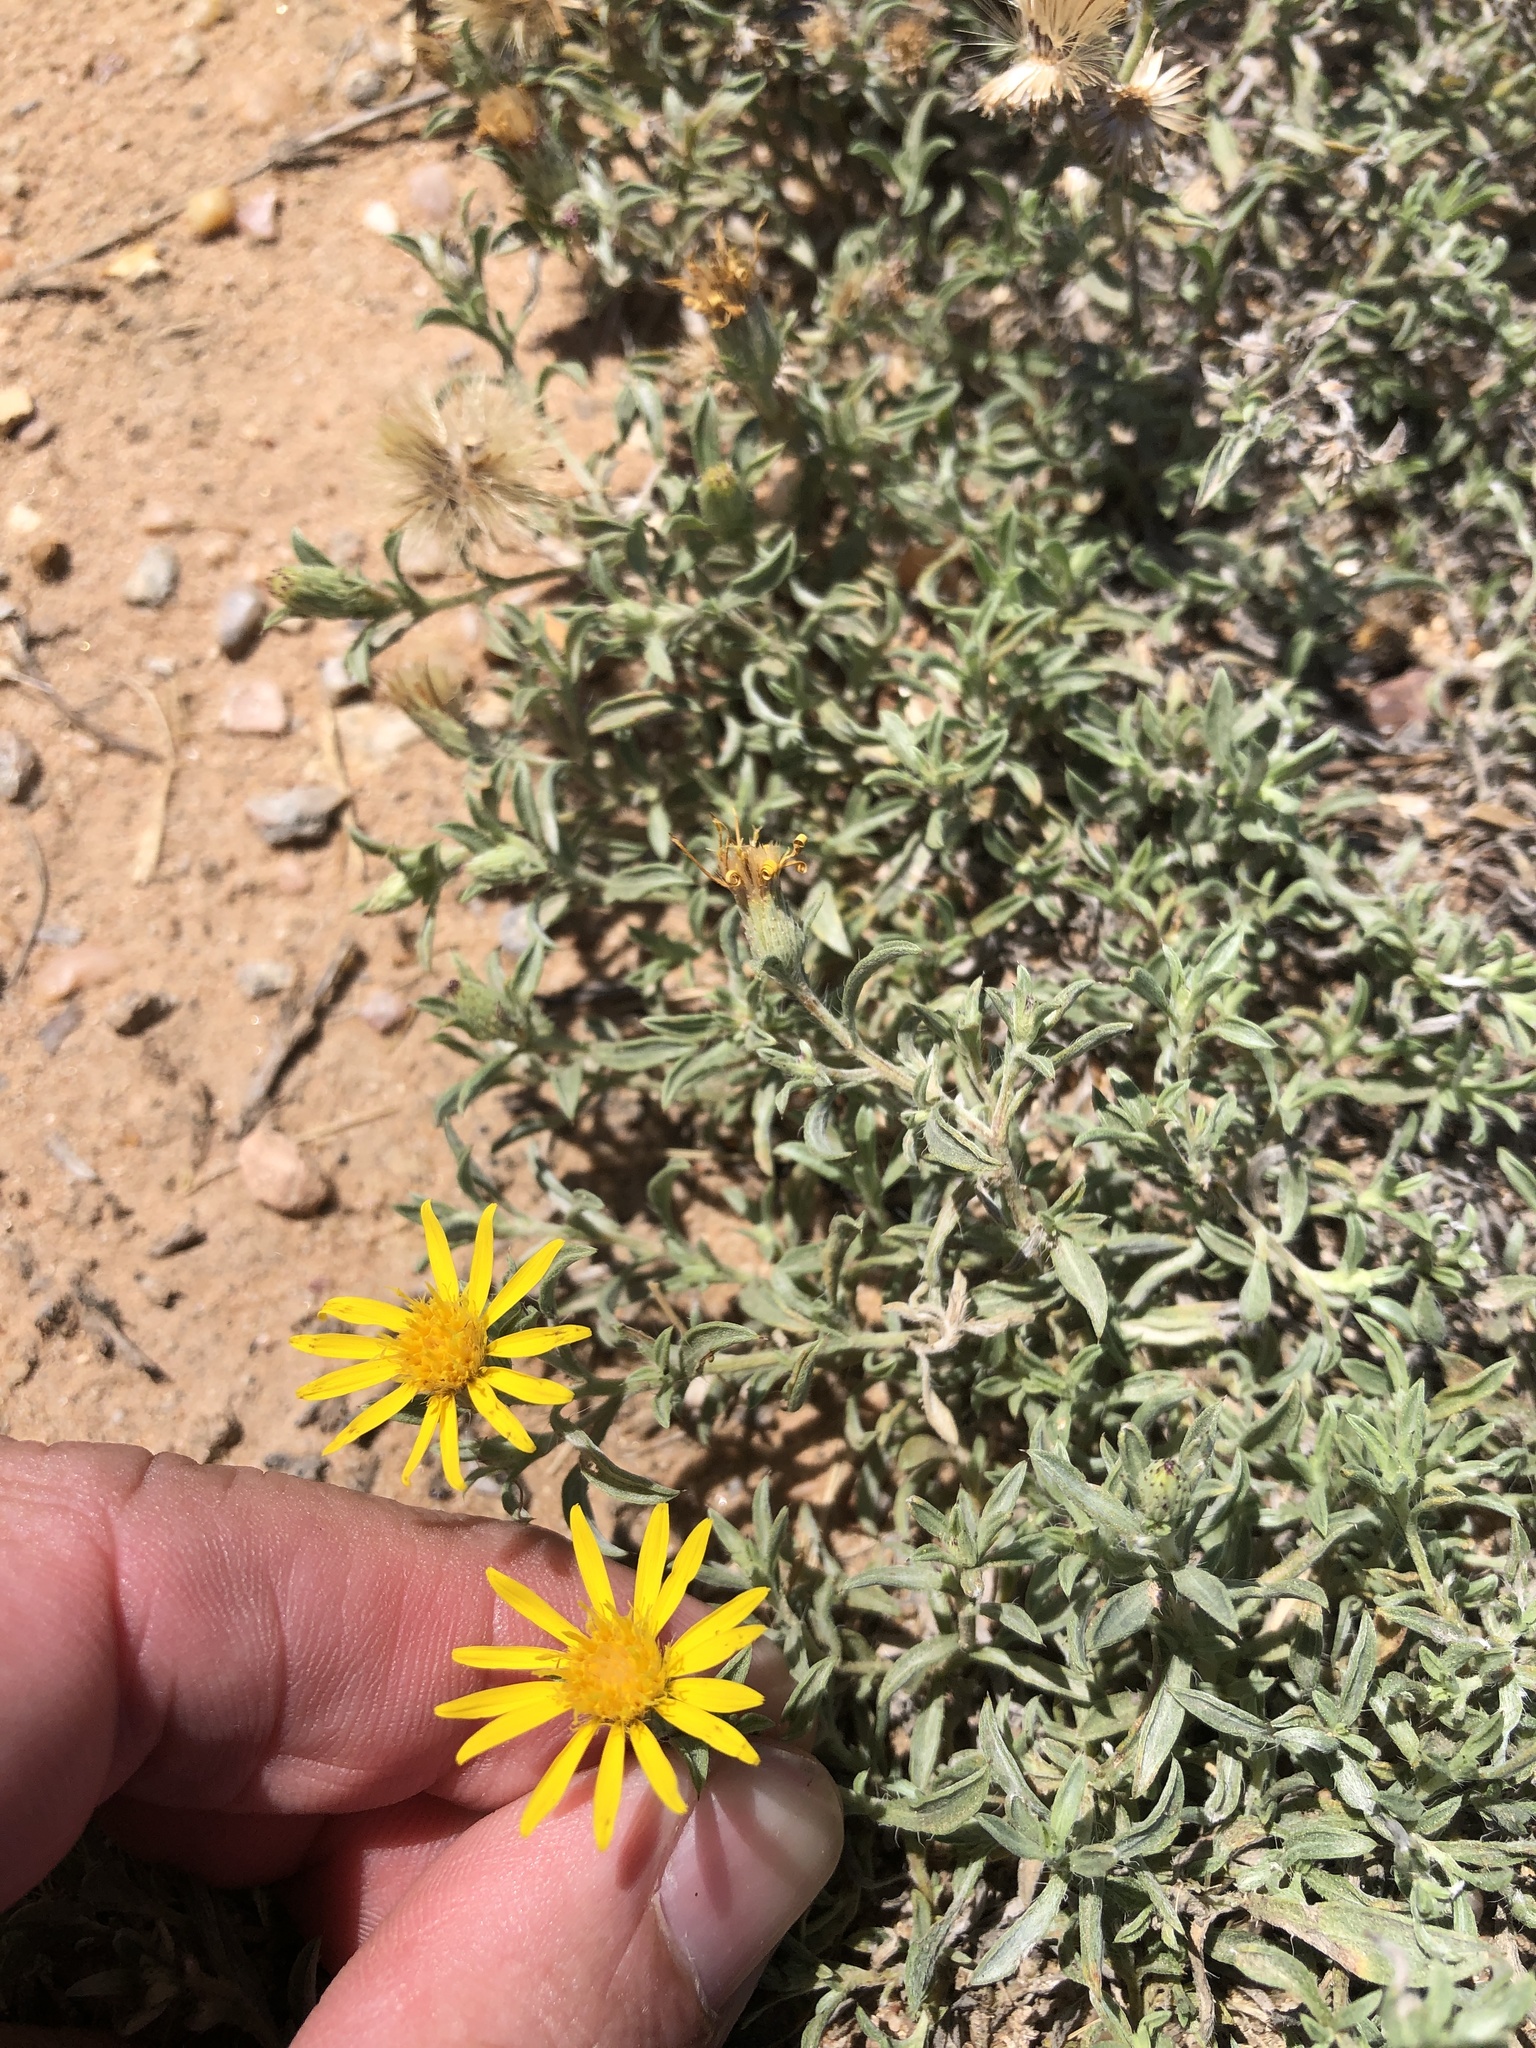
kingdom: Plantae
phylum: Tracheophyta
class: Magnoliopsida
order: Asterales
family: Asteraceae
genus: Heterotheca
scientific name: Heterotheca canescens
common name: Hoary golden-aster
